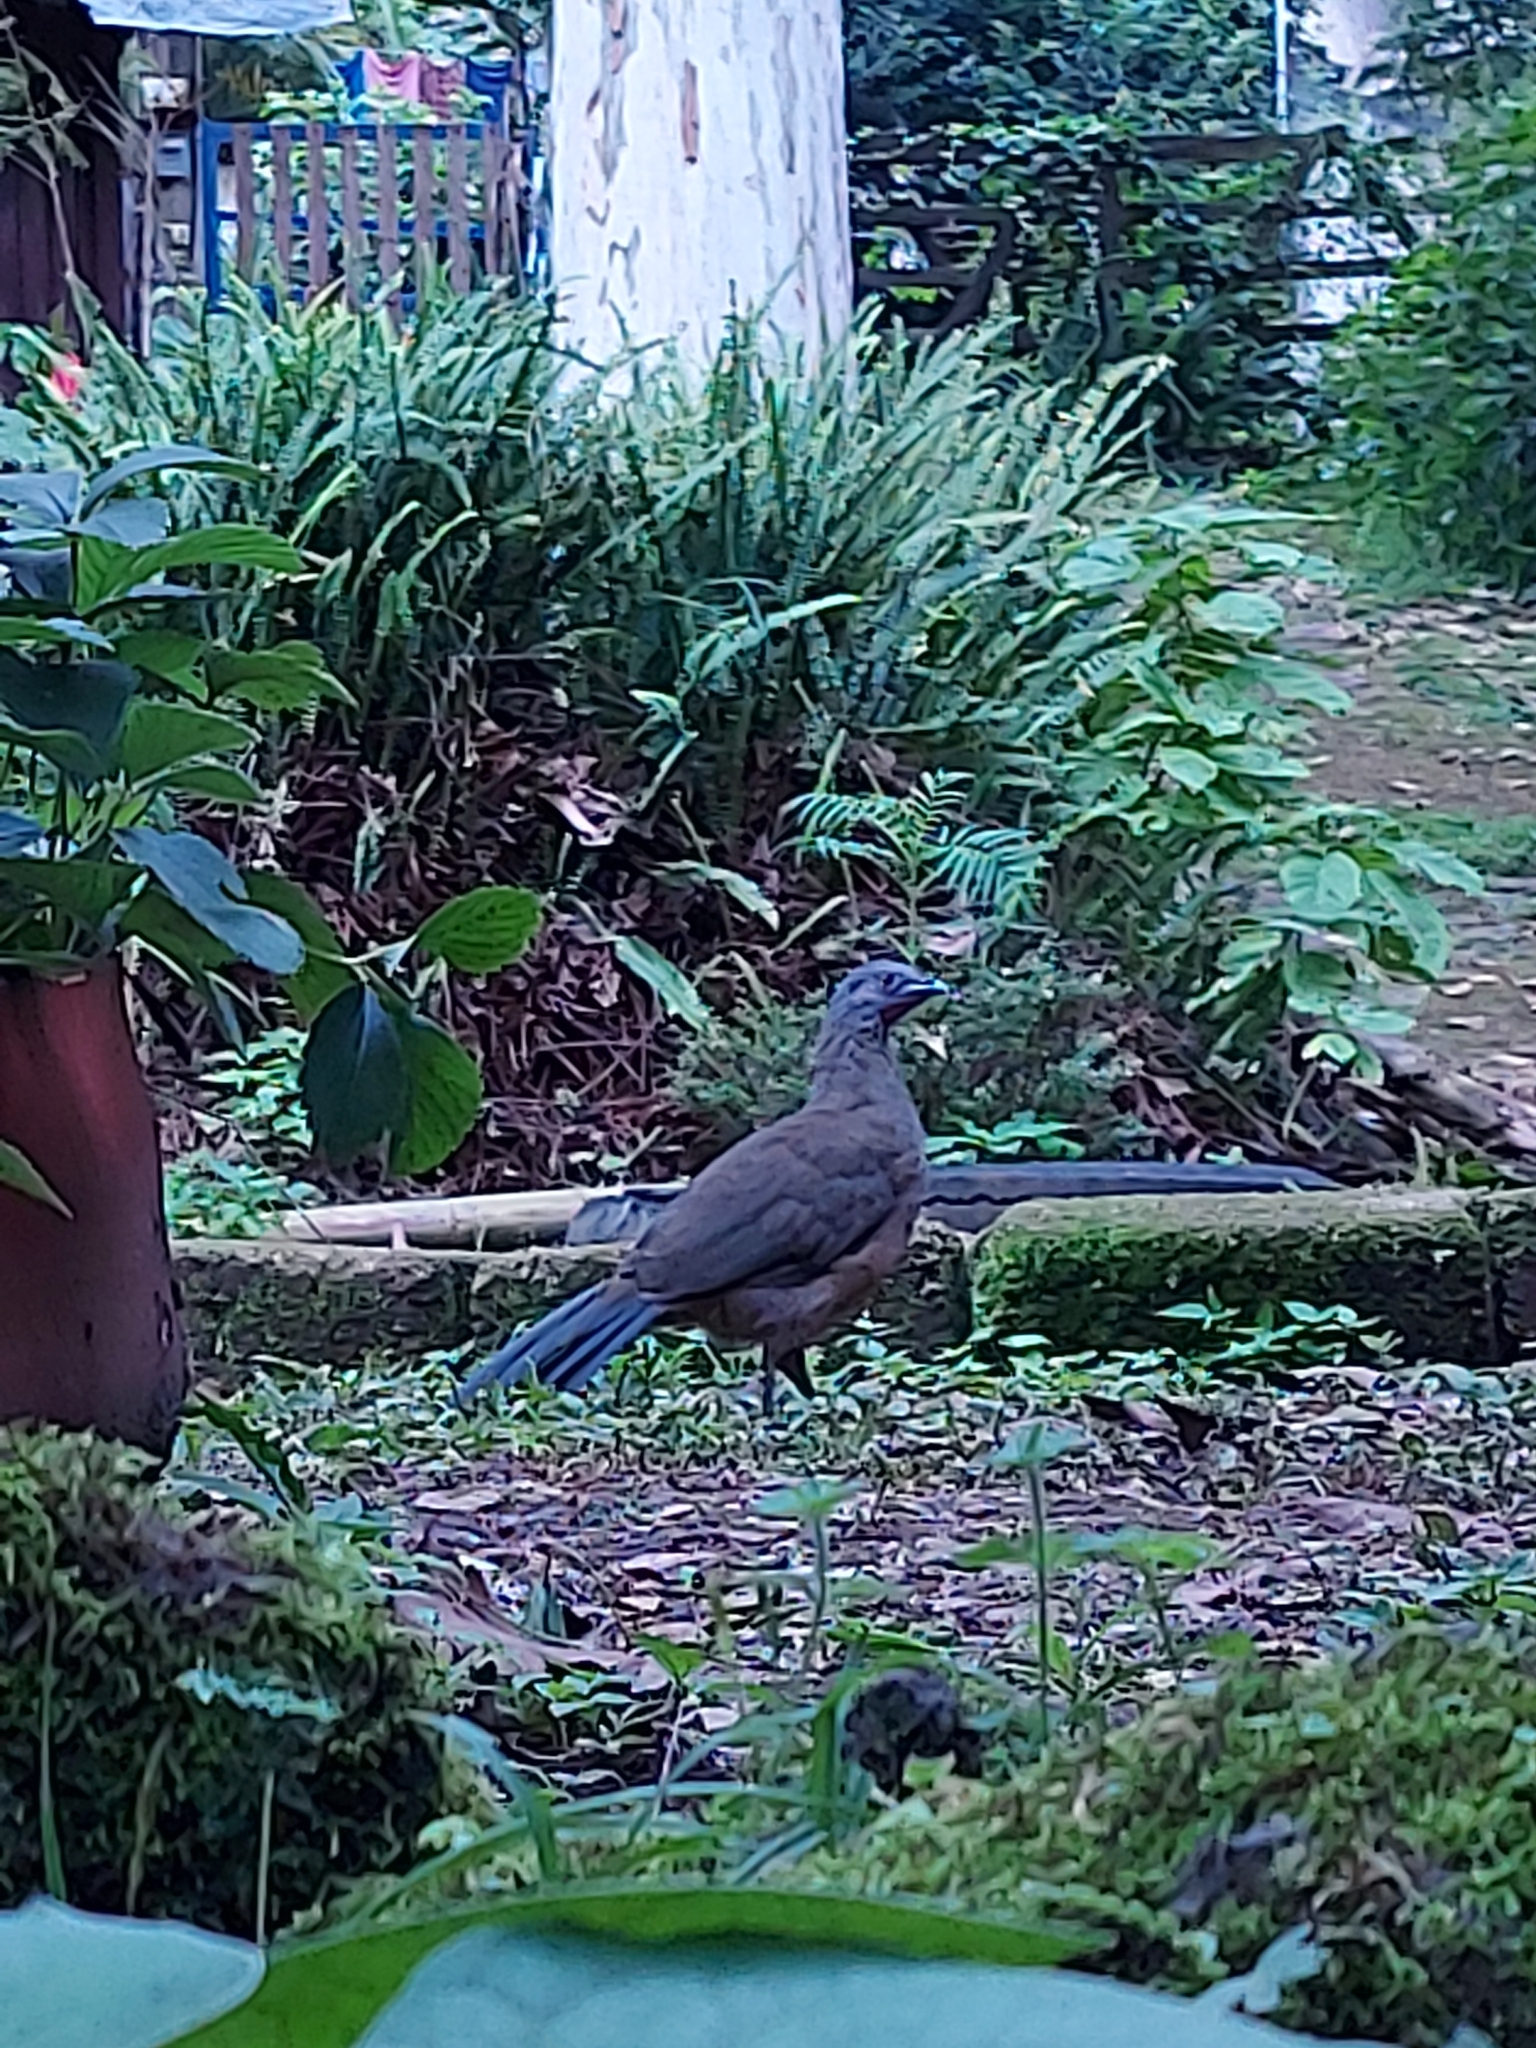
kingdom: Animalia
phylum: Chordata
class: Aves
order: Galliformes
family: Cracidae
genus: Ortalis
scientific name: Ortalis vetula
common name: Plain chachalaca
